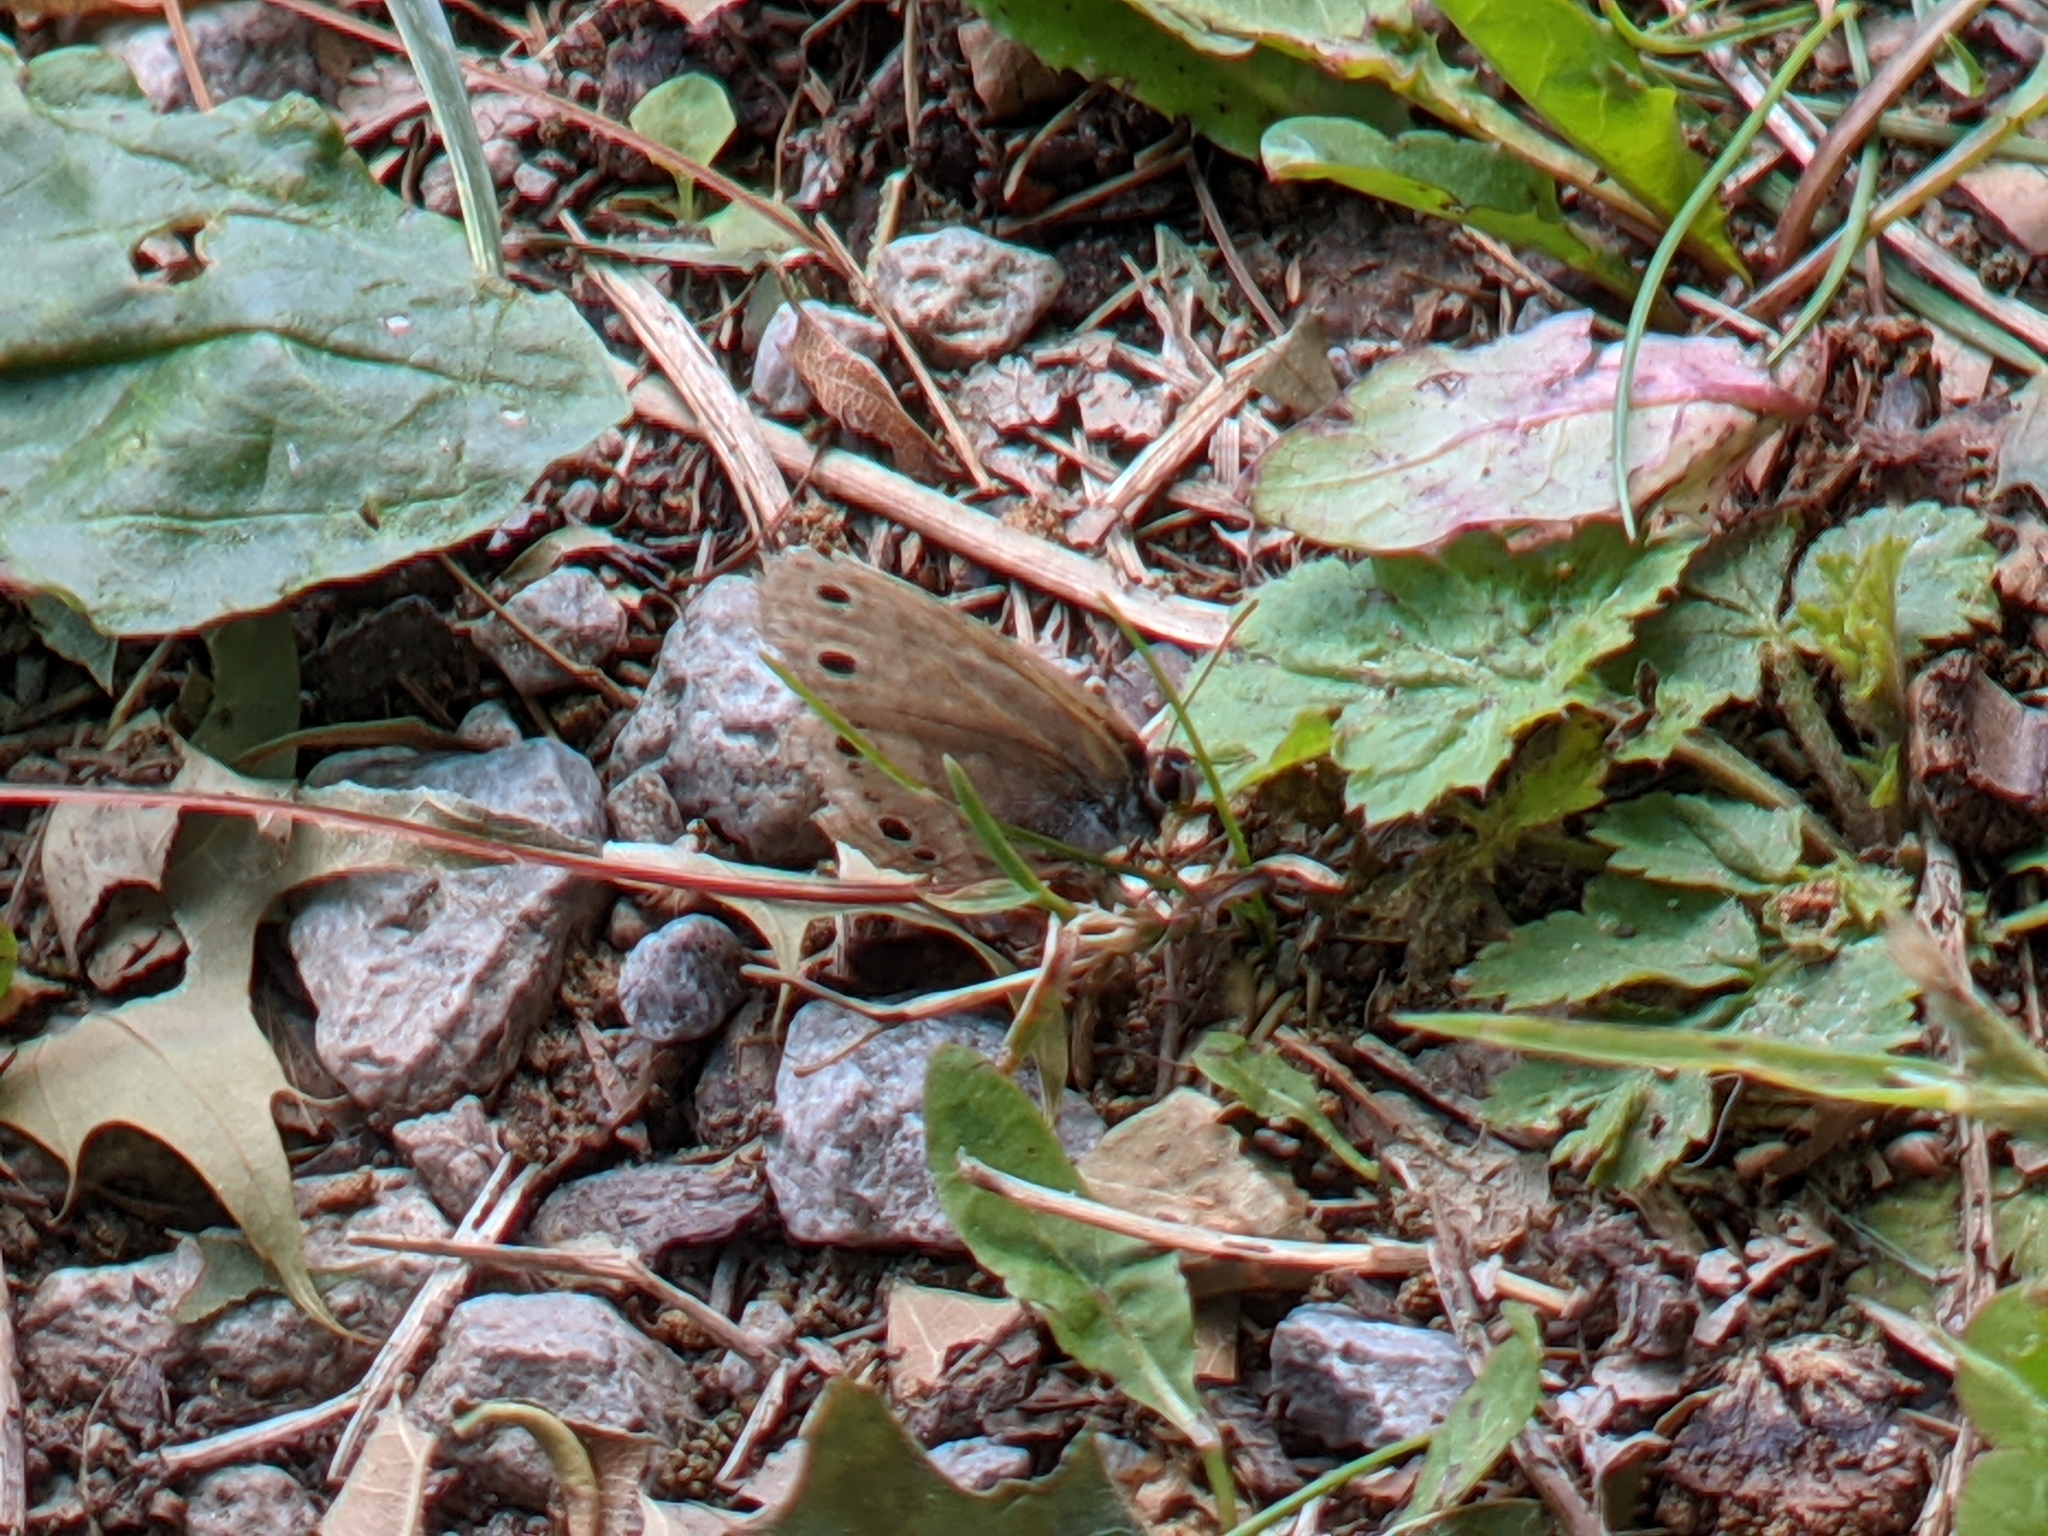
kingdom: Animalia
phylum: Arthropoda
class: Insecta
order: Lepidoptera
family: Nymphalidae
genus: Euptychia
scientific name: Euptychia cymela
